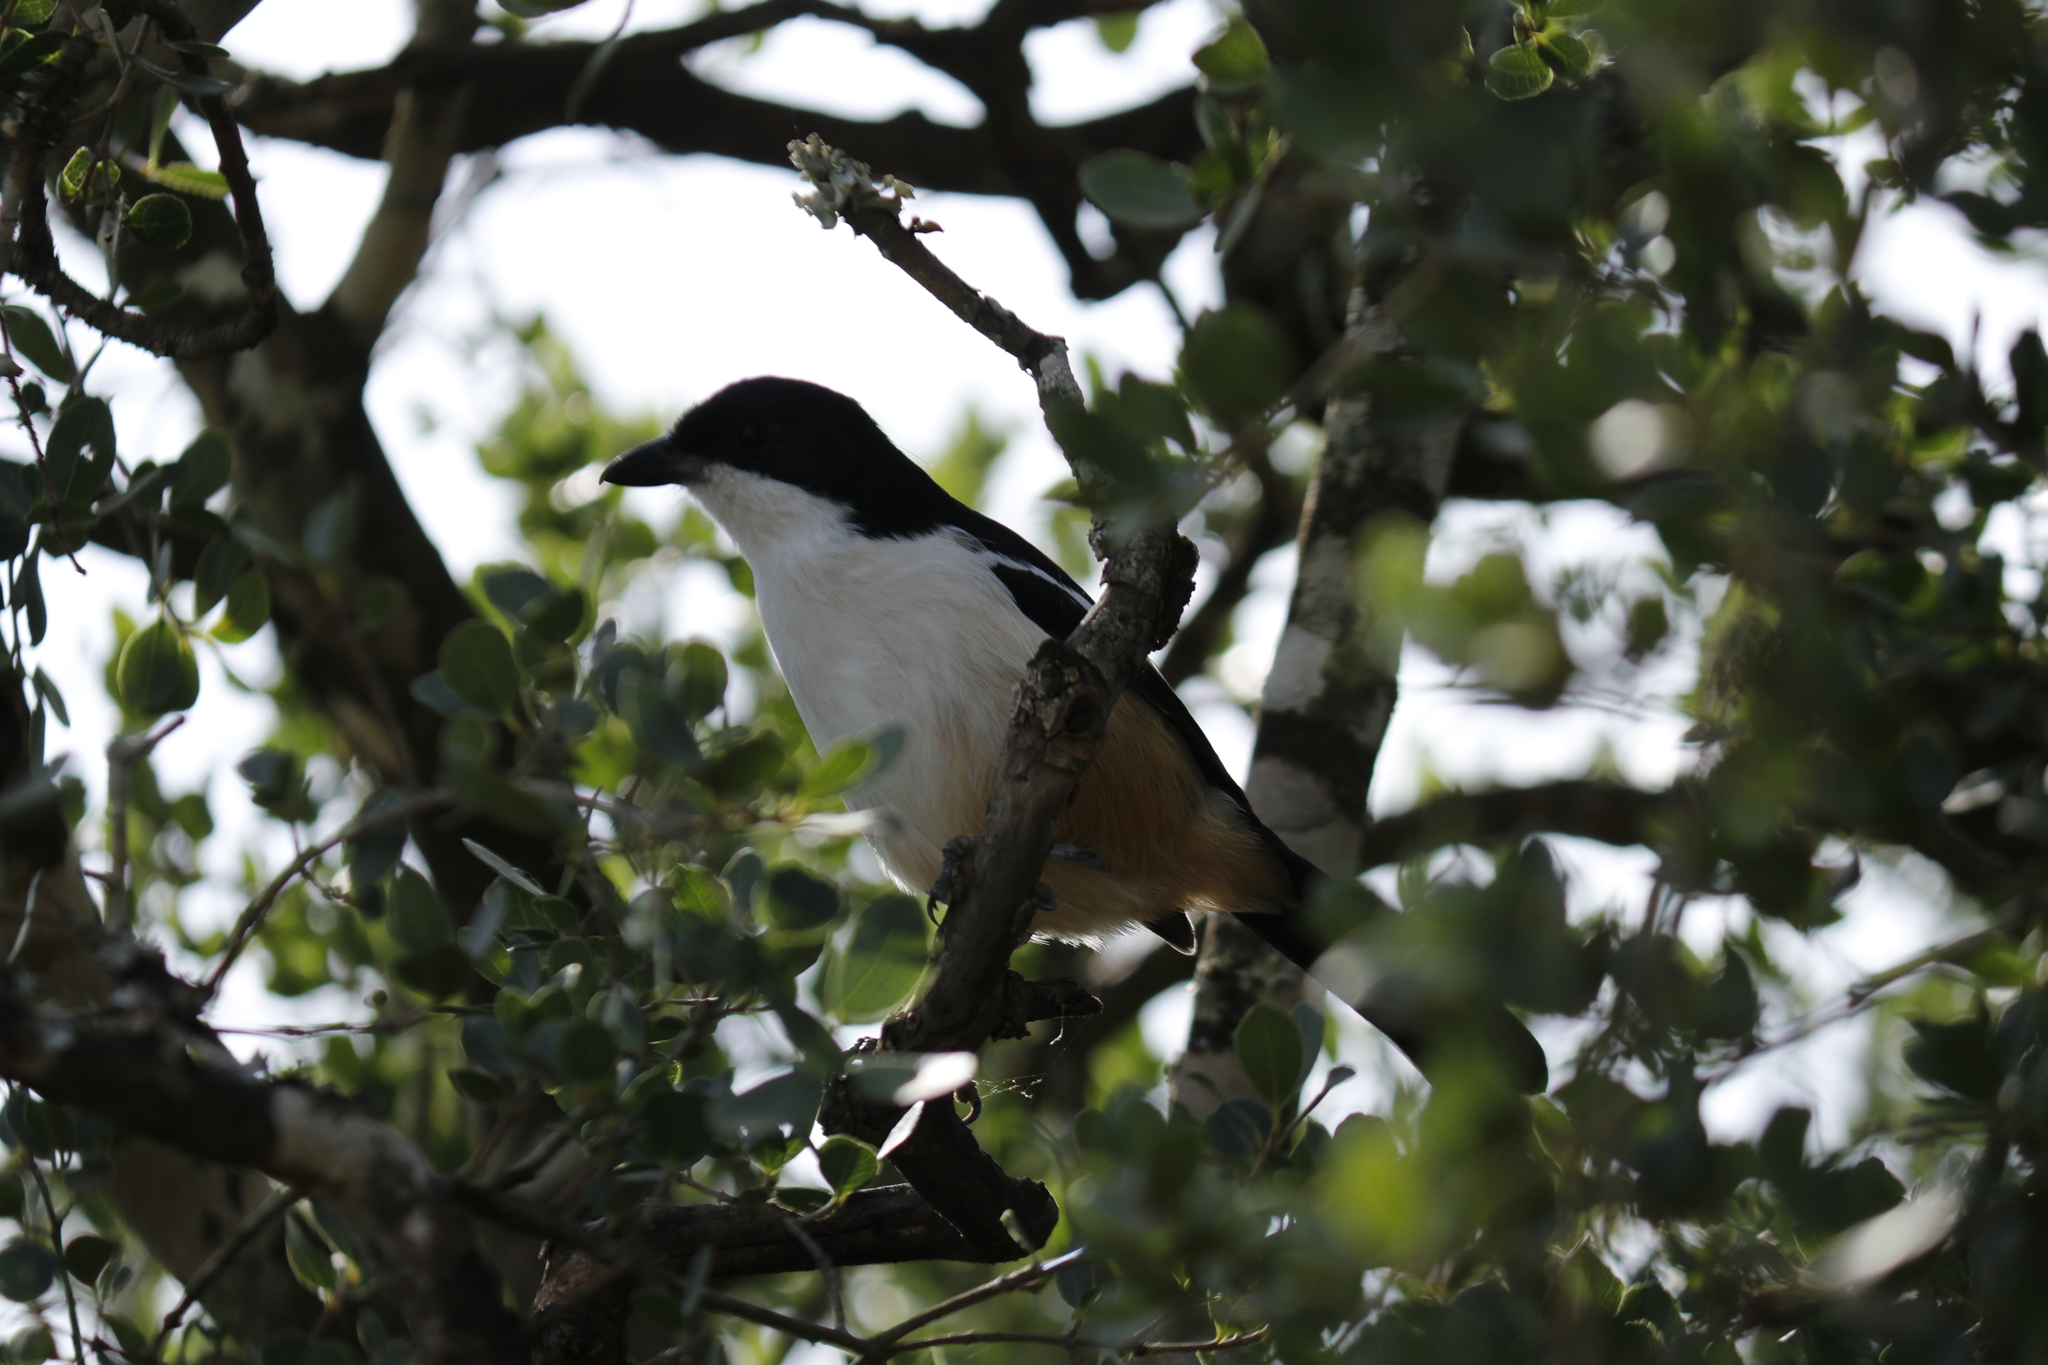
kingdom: Animalia
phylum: Chordata
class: Aves
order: Passeriformes
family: Malaconotidae
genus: Laniarius
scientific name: Laniarius ferrugineus
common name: Southern boubou
